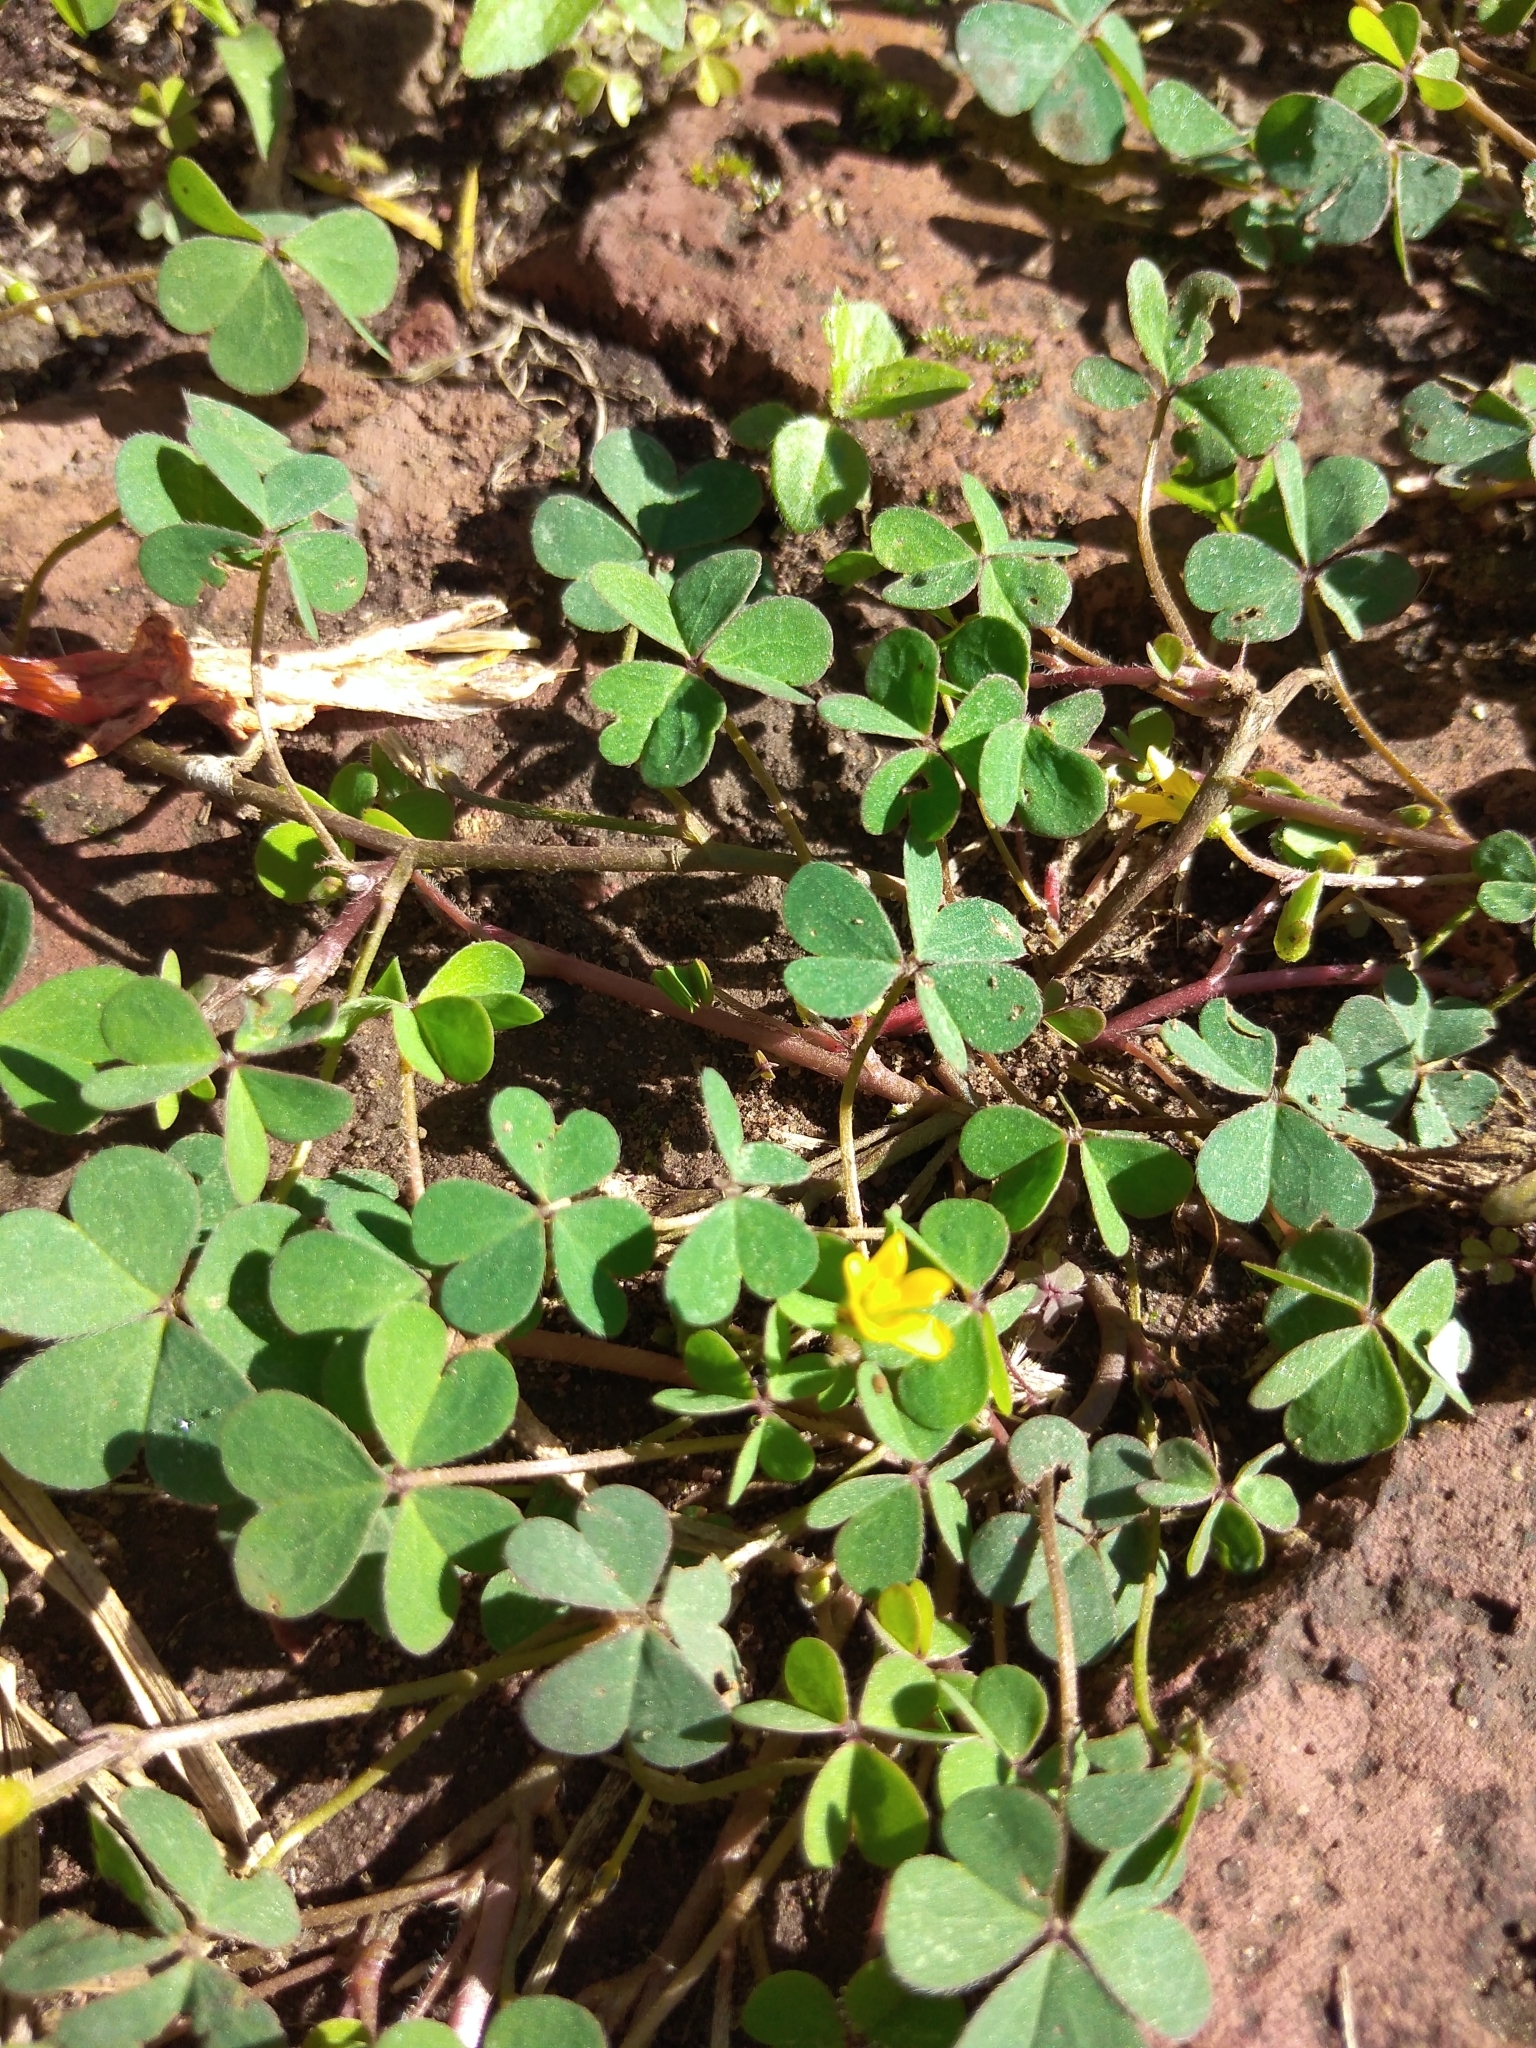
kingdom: Plantae
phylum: Tracheophyta
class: Magnoliopsida
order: Oxalidales
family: Oxalidaceae
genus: Oxalis
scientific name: Oxalis corniculata
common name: Procumbent yellow-sorrel
